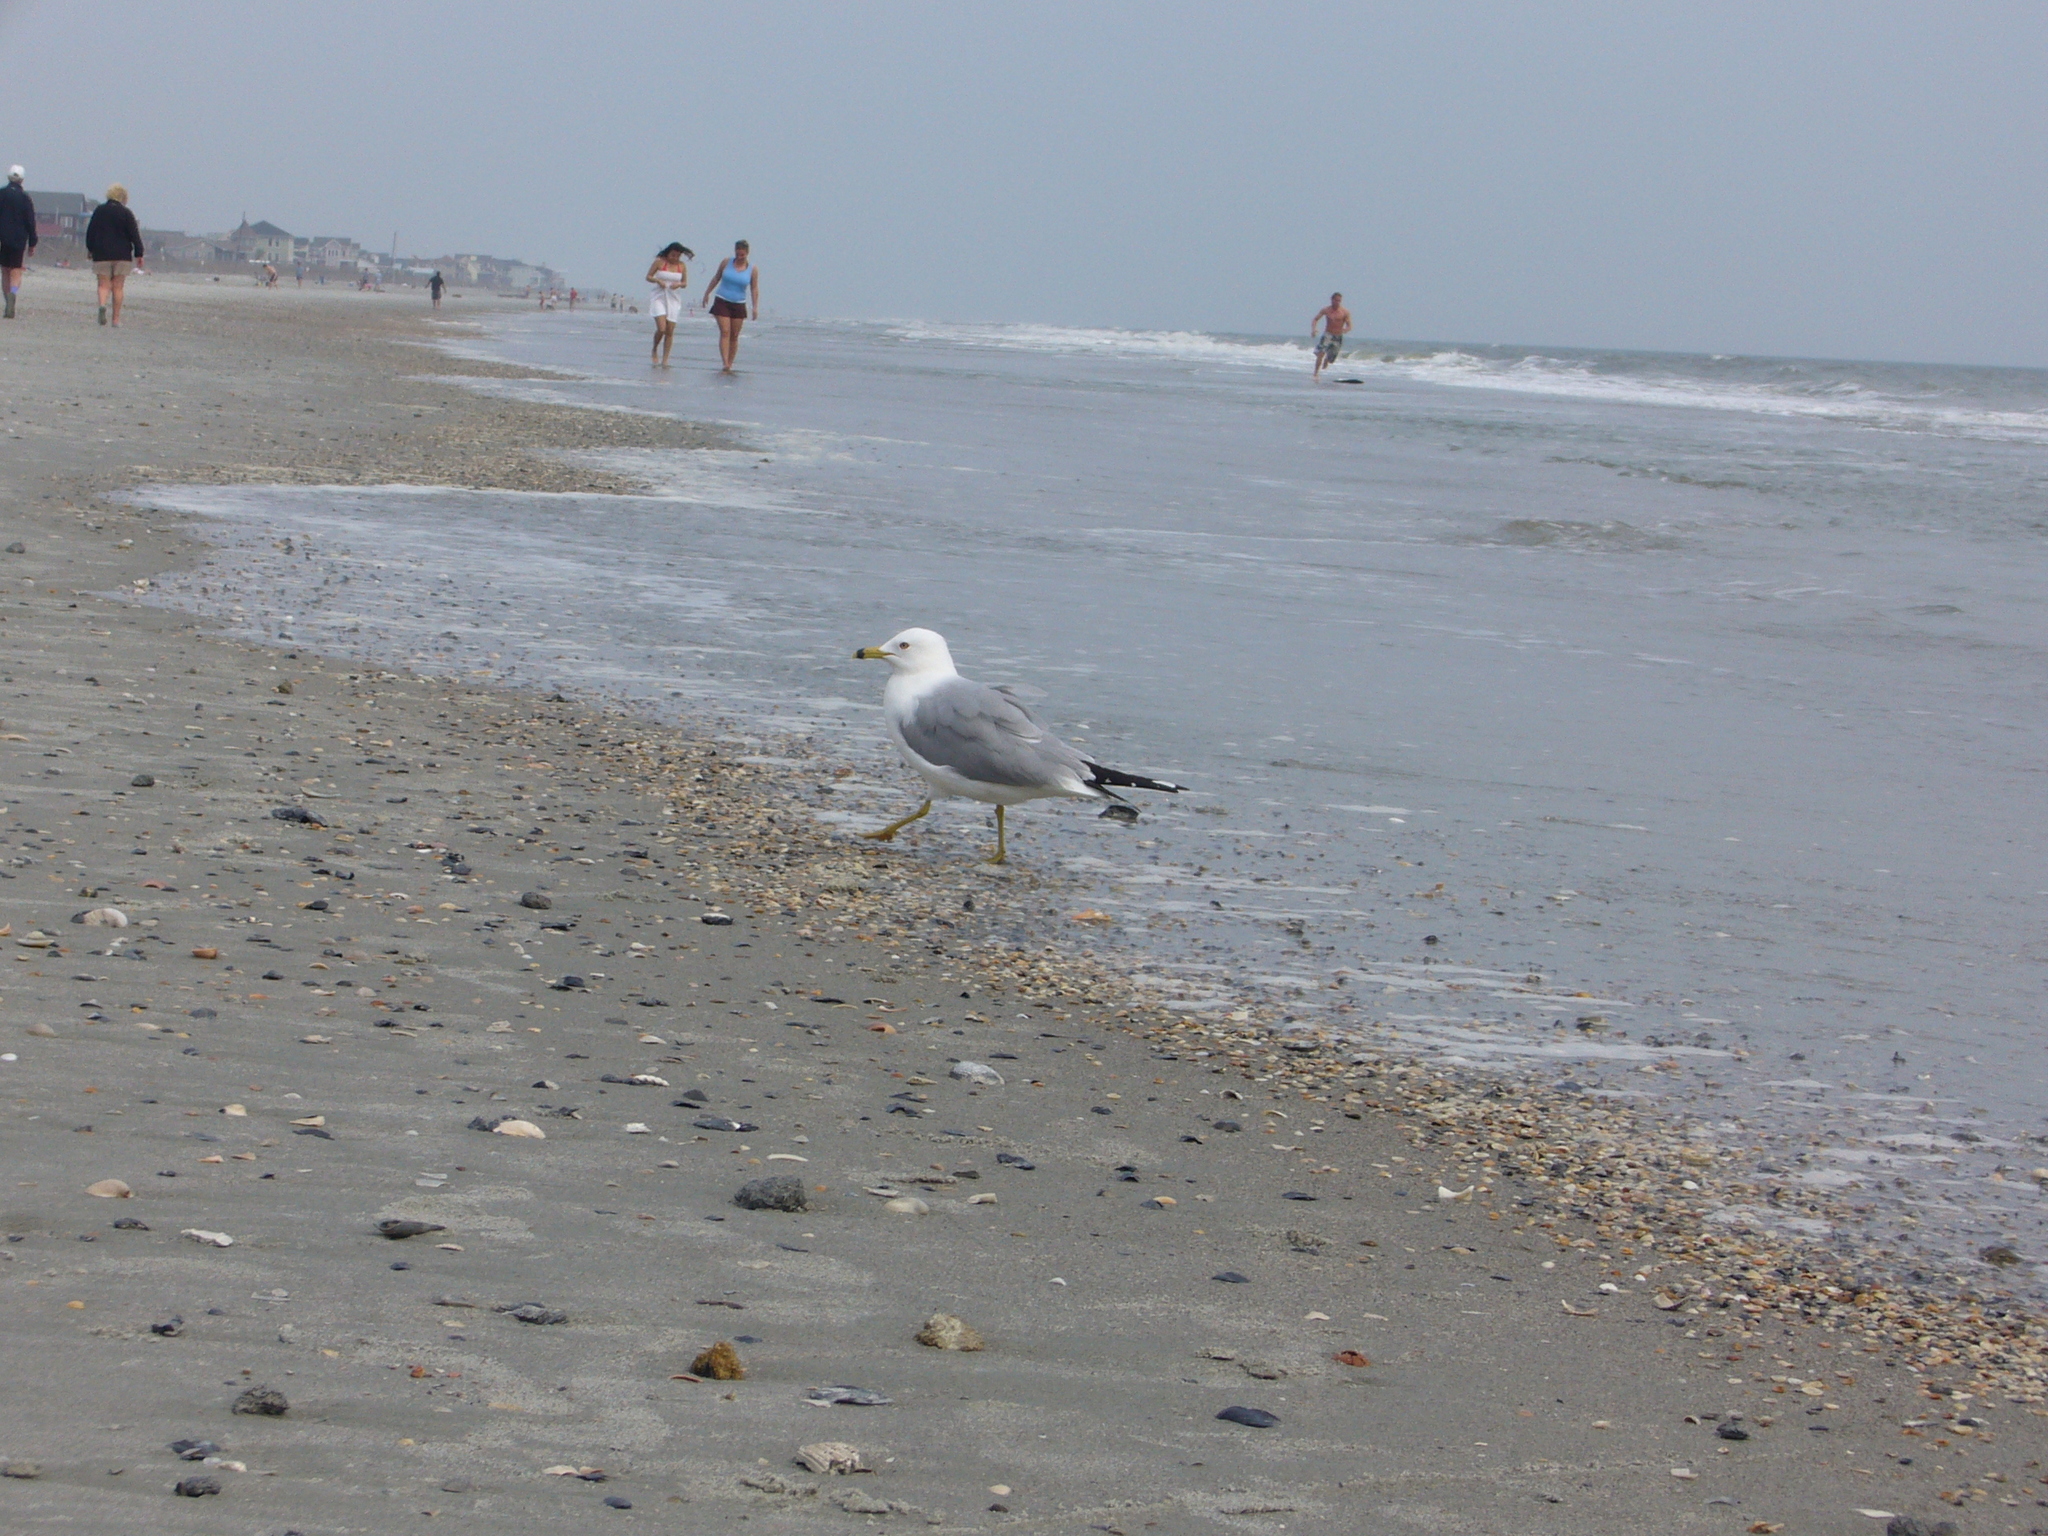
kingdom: Animalia
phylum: Chordata
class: Aves
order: Charadriiformes
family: Laridae
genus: Larus
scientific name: Larus delawarensis
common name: Ring-billed gull
